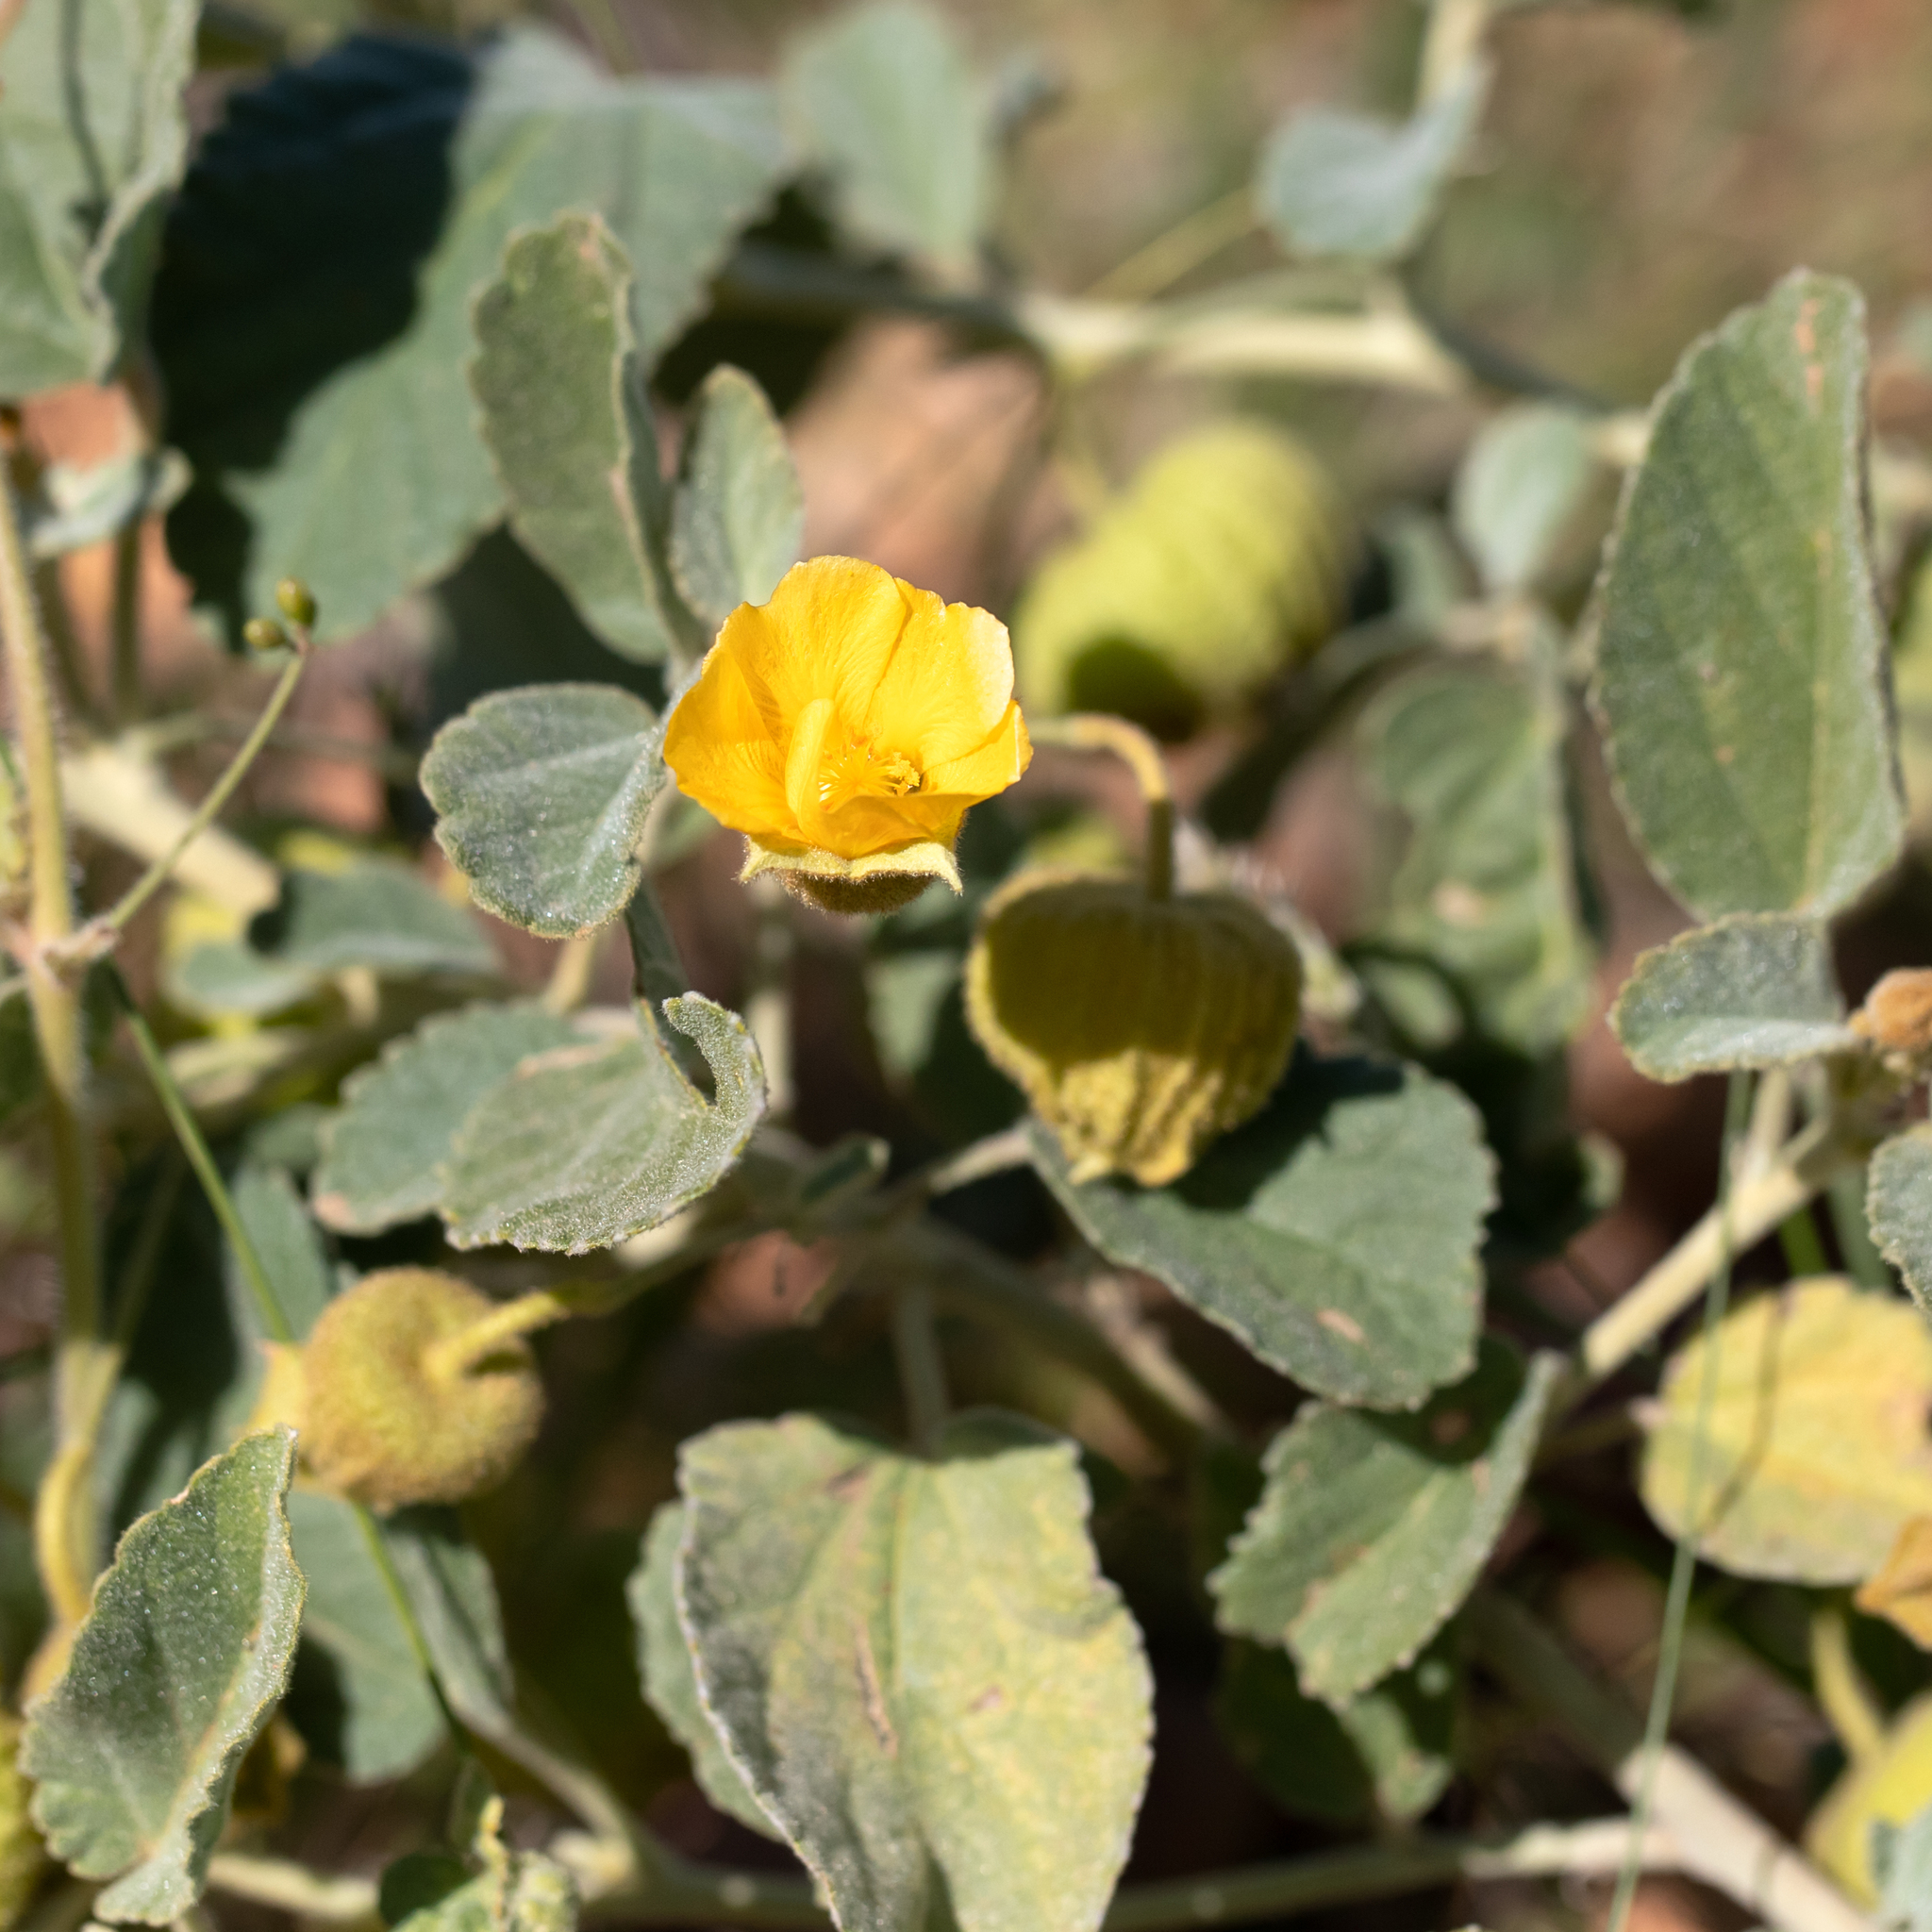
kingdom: Plantae
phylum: Tracheophyta
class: Magnoliopsida
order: Malvales
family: Malvaceae
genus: Sida
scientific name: Sida platycalyx
